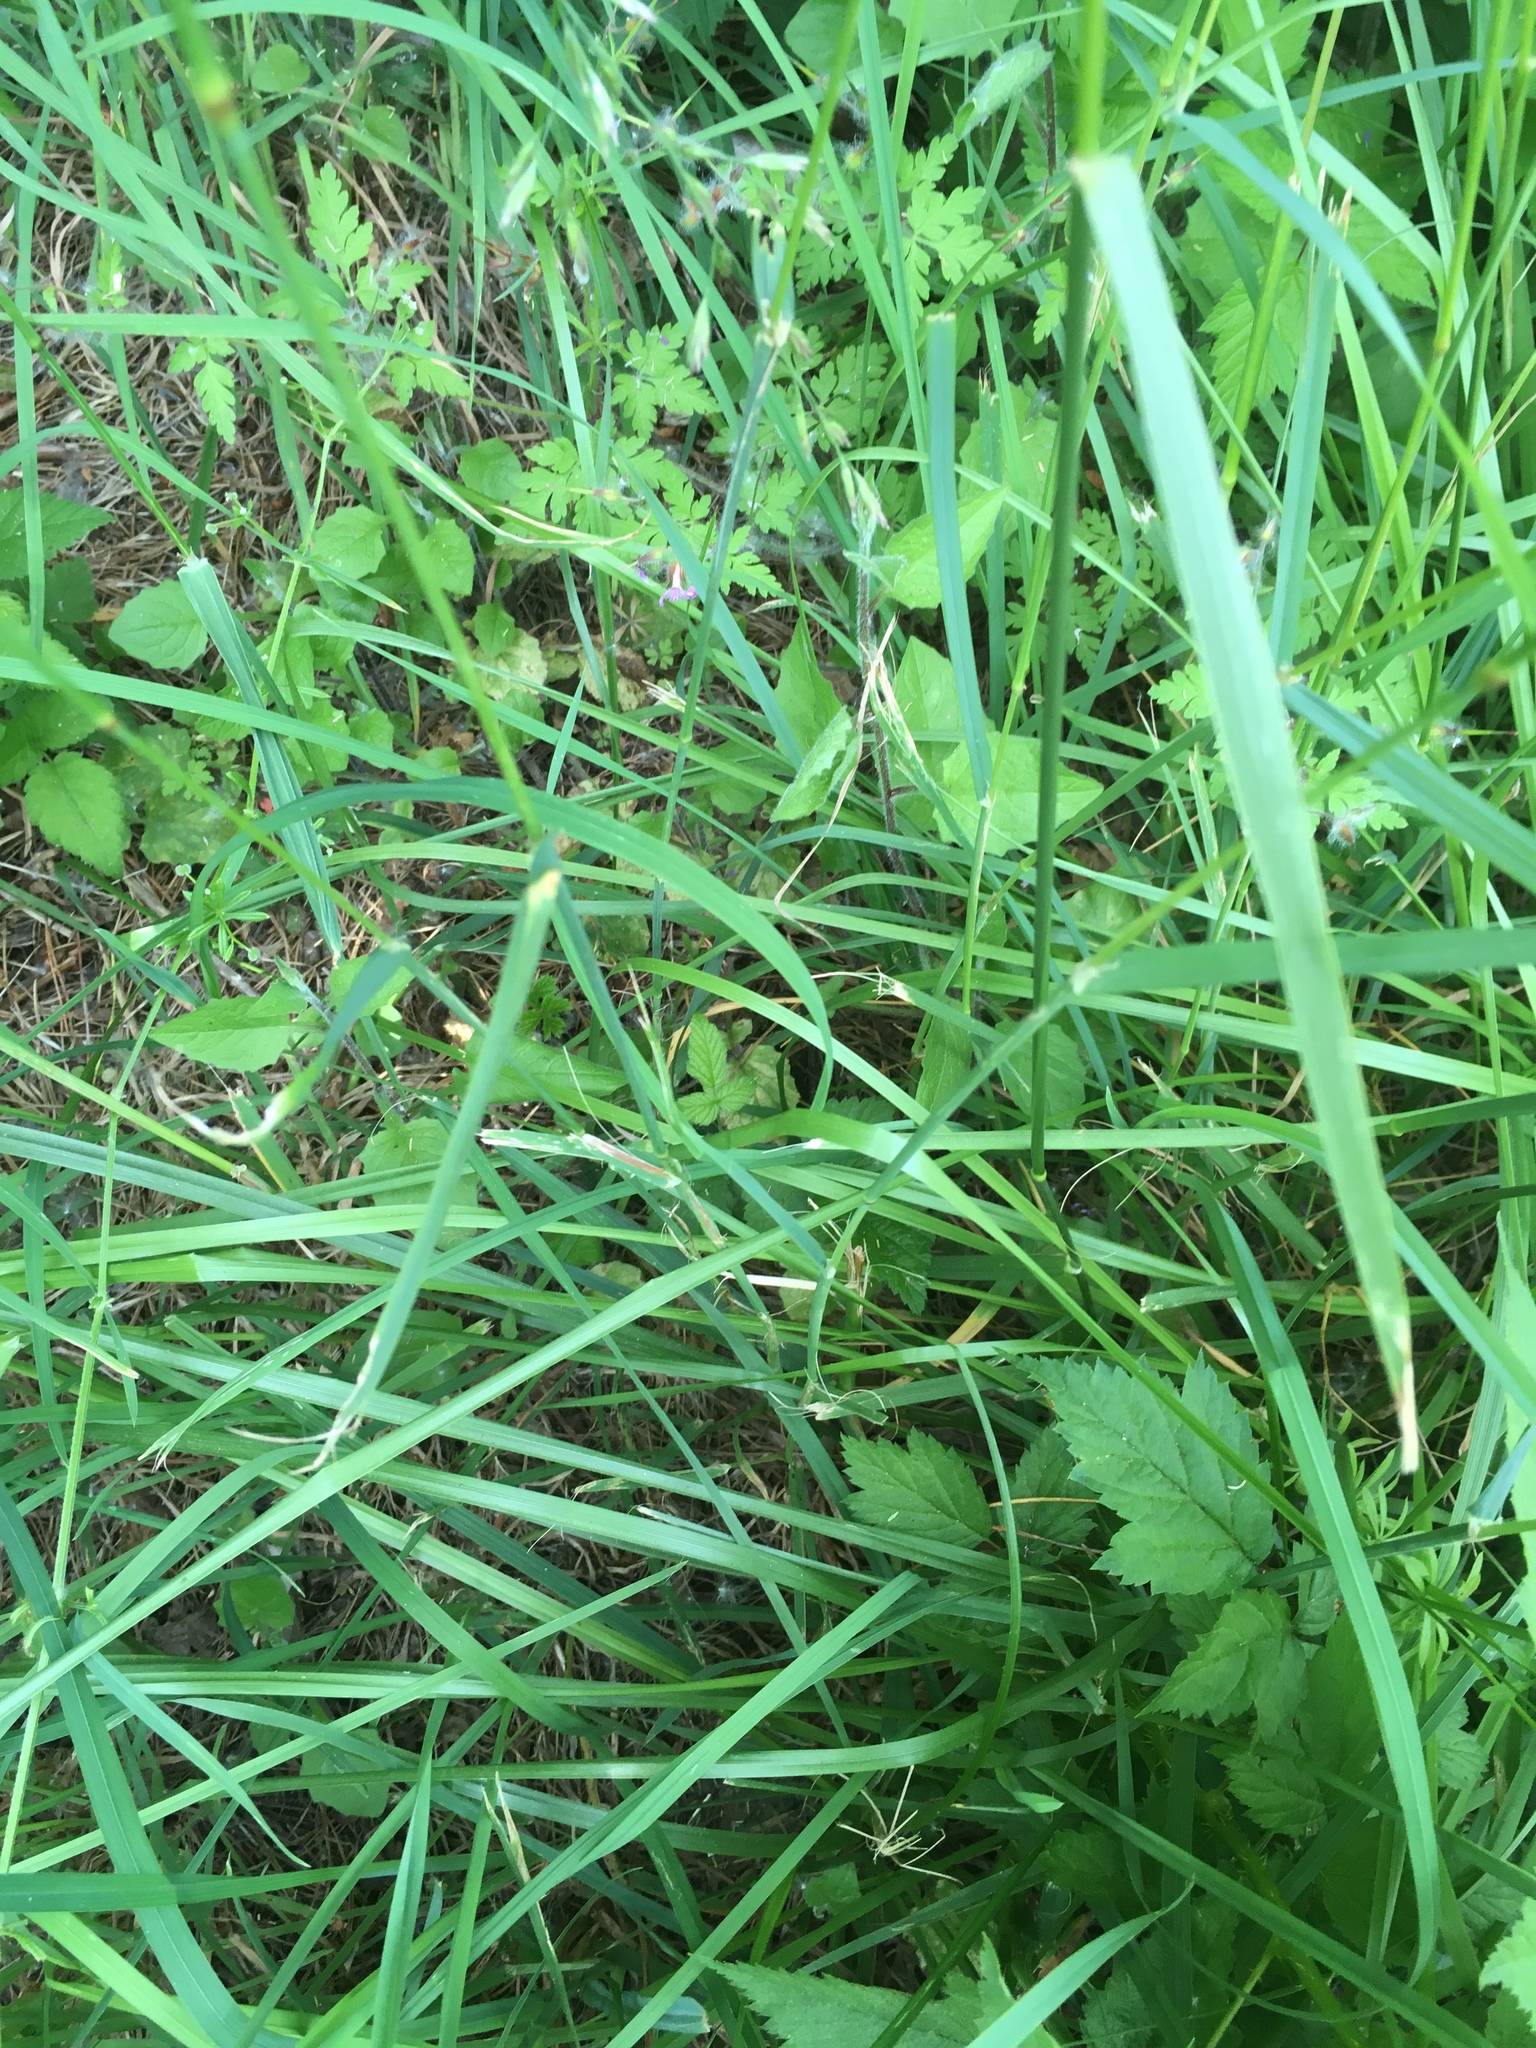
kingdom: Plantae
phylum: Tracheophyta
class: Liliopsida
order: Poales
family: Poaceae
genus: Dactylis
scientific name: Dactylis glomerata
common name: Orchardgrass
